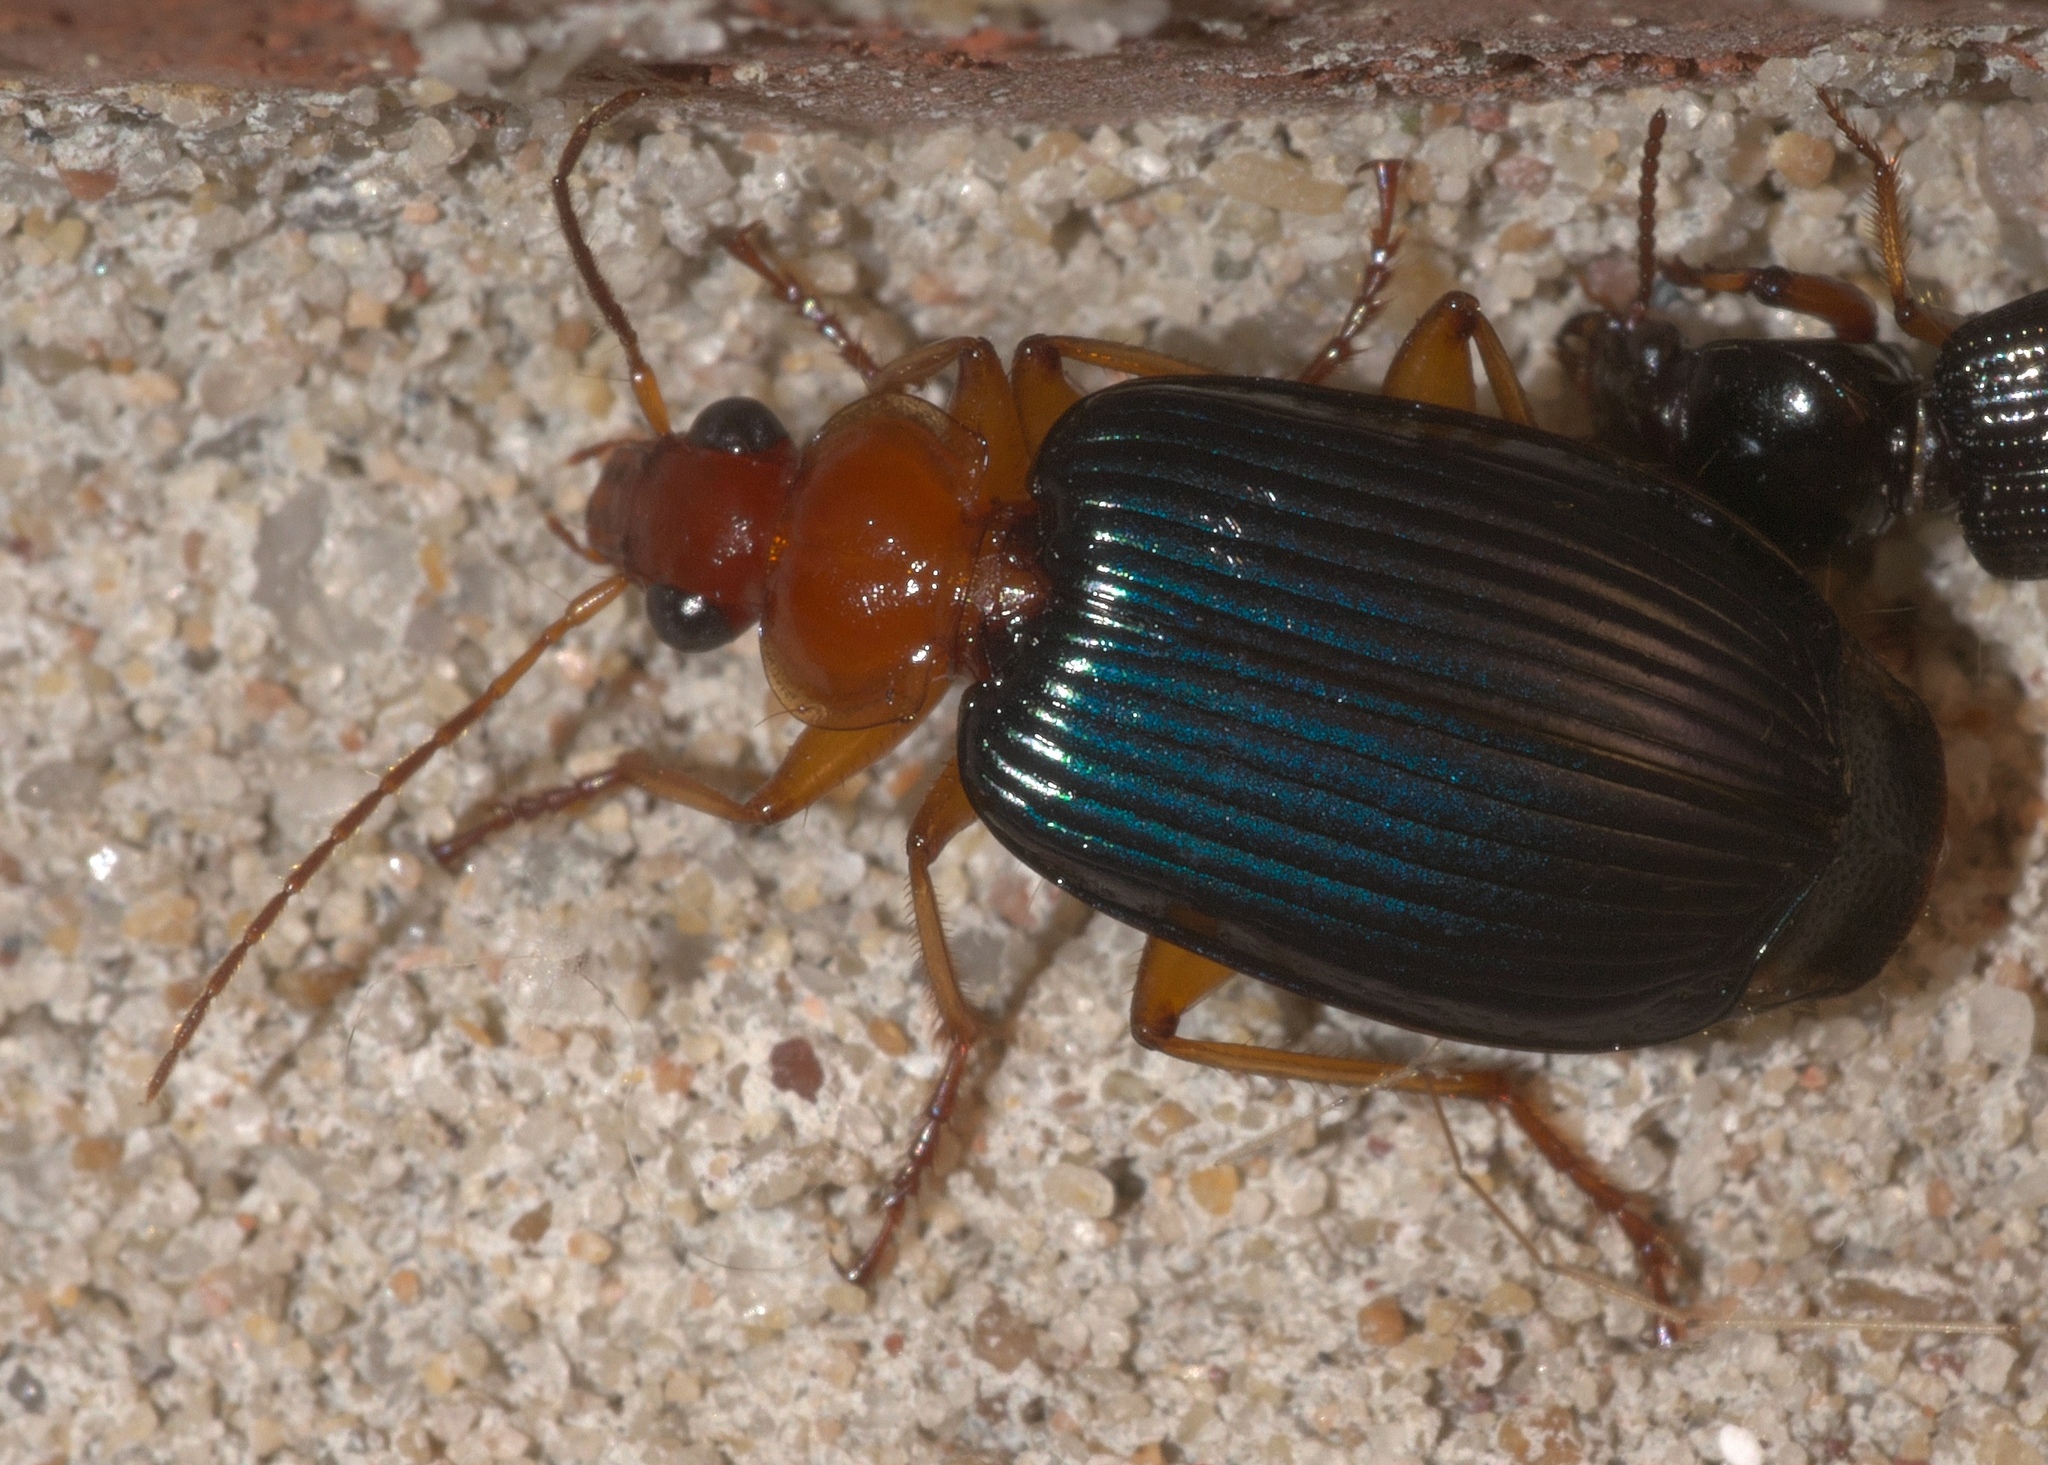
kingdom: Animalia
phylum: Arthropoda
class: Insecta
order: Coleoptera
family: Carabidae
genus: Lebia
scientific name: Lebia grandis
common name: Large foliage ground beetle
